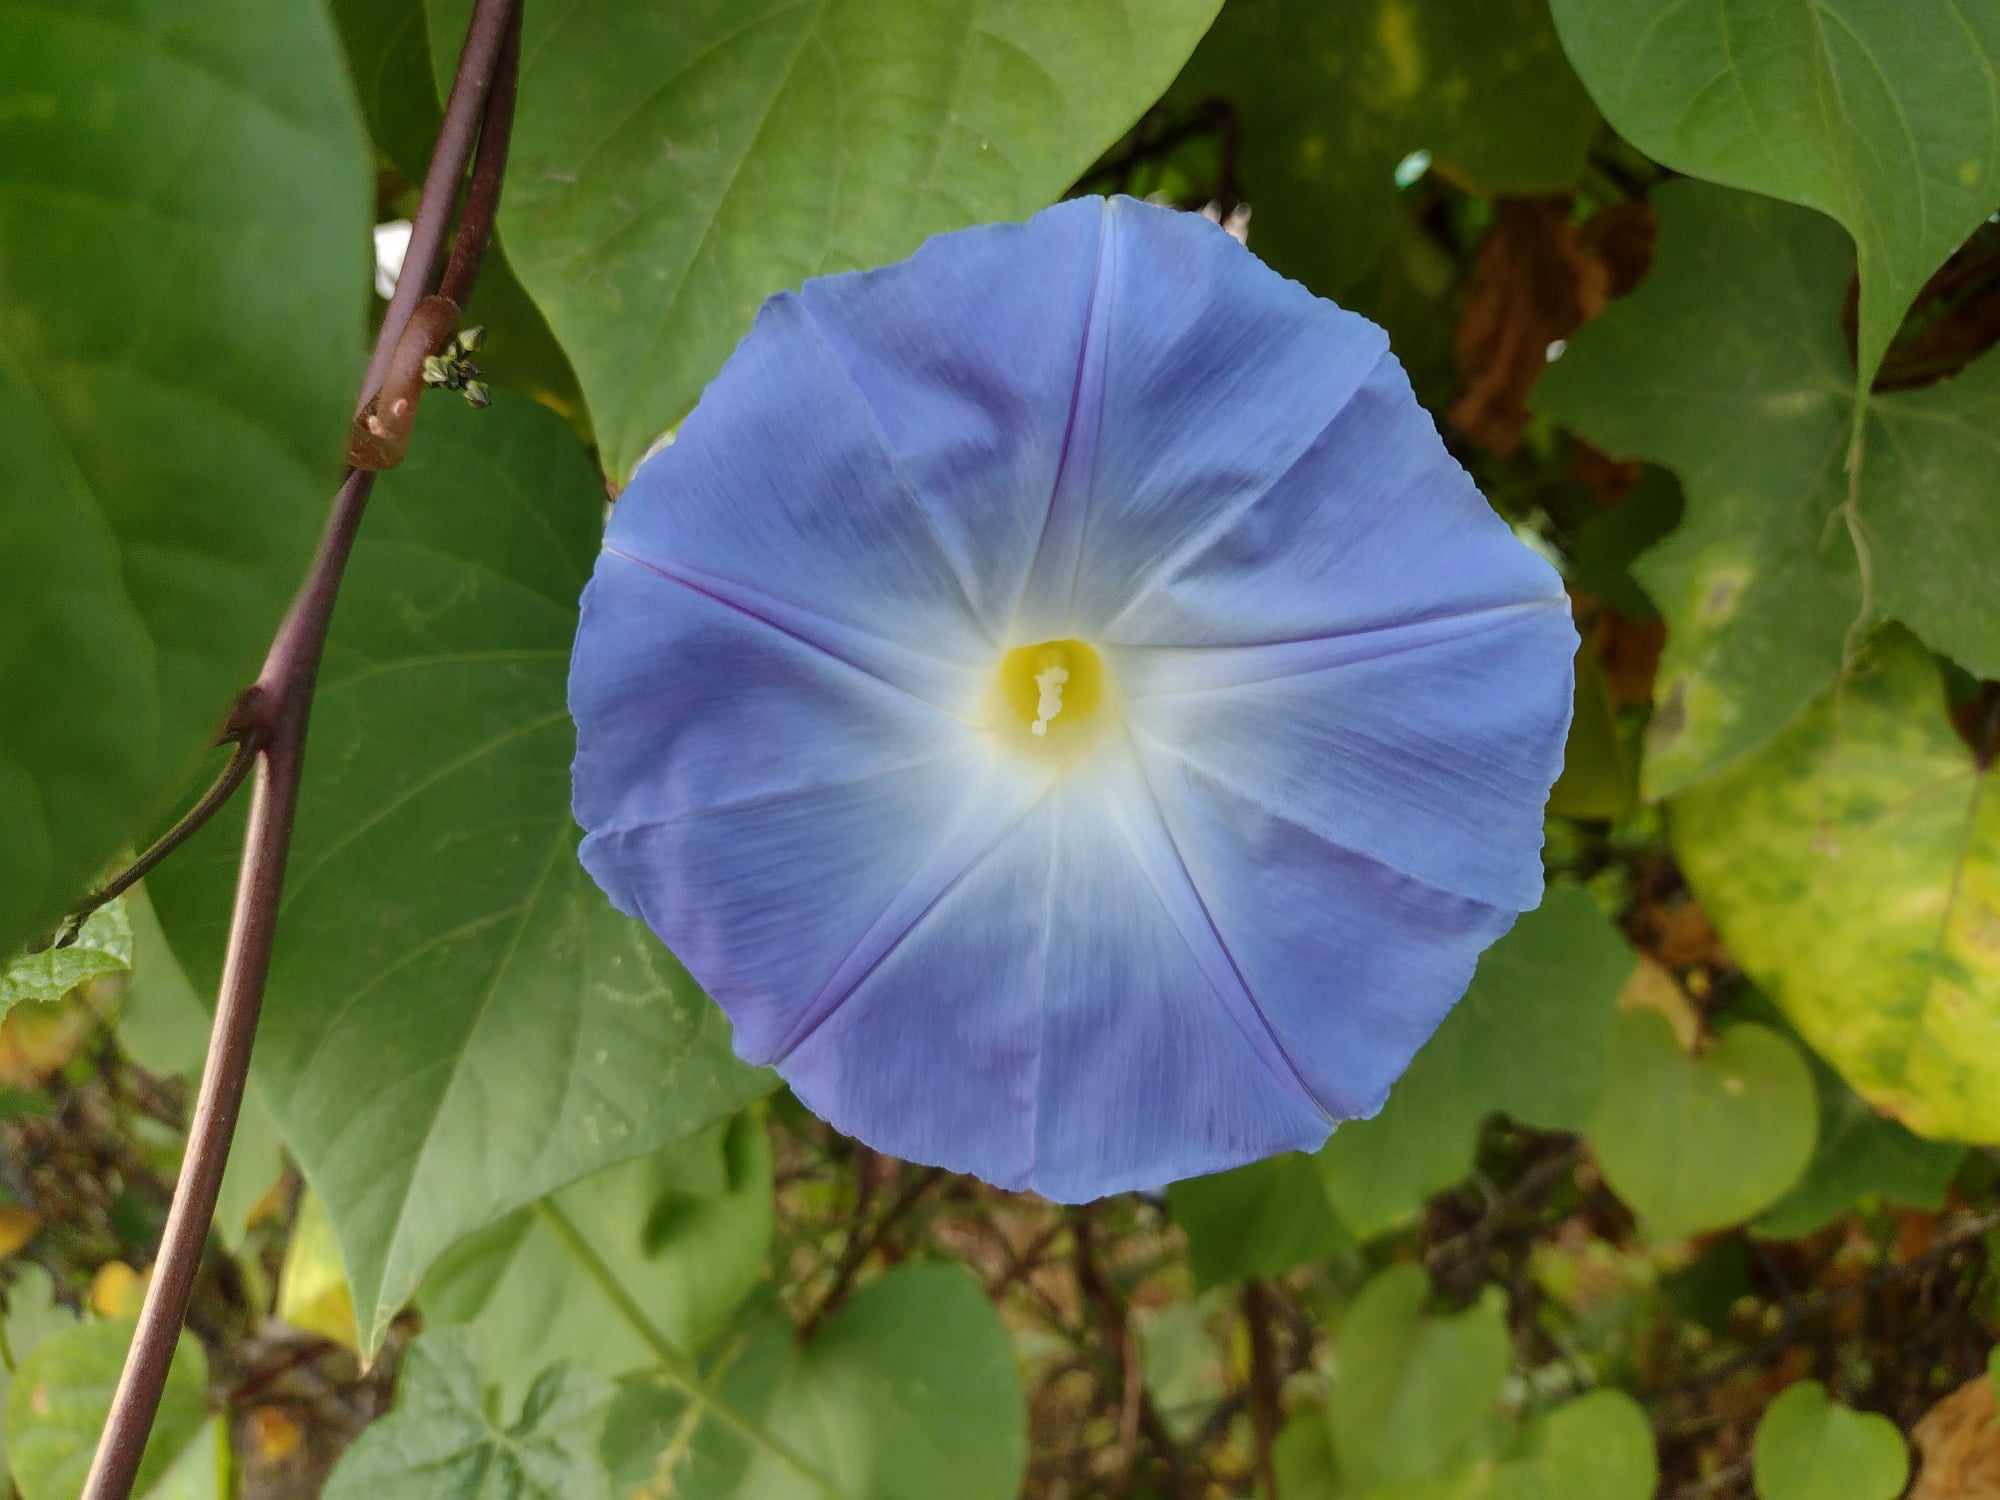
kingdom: Plantae
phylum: Tracheophyta
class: Magnoliopsida
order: Solanales
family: Convolvulaceae
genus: Ipomoea
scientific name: Ipomoea tricolor
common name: Morning-glory
